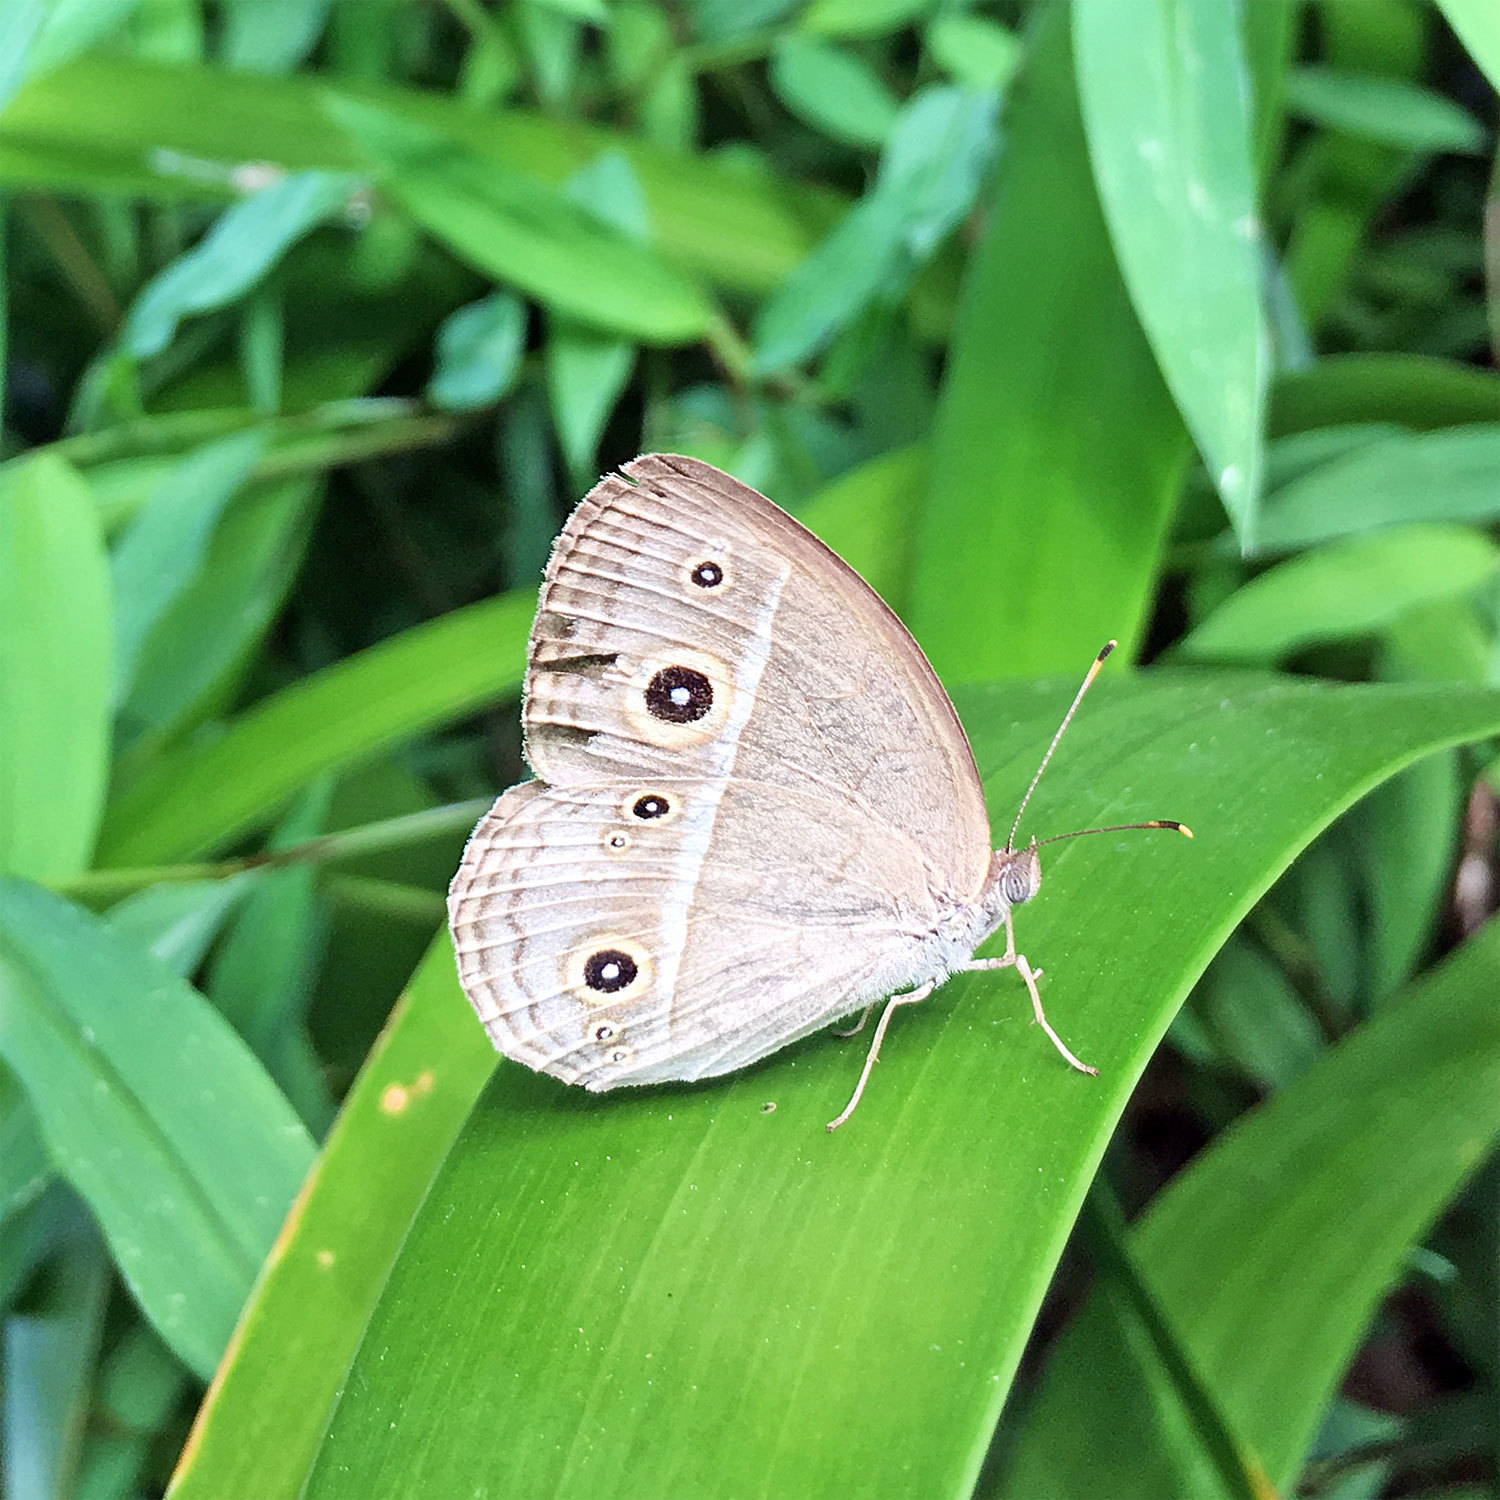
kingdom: Animalia
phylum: Arthropoda
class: Insecta
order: Lepidoptera
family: Nymphalidae
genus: Mycalesis
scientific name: Mycalesis gotama
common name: Chinese bushbrown
